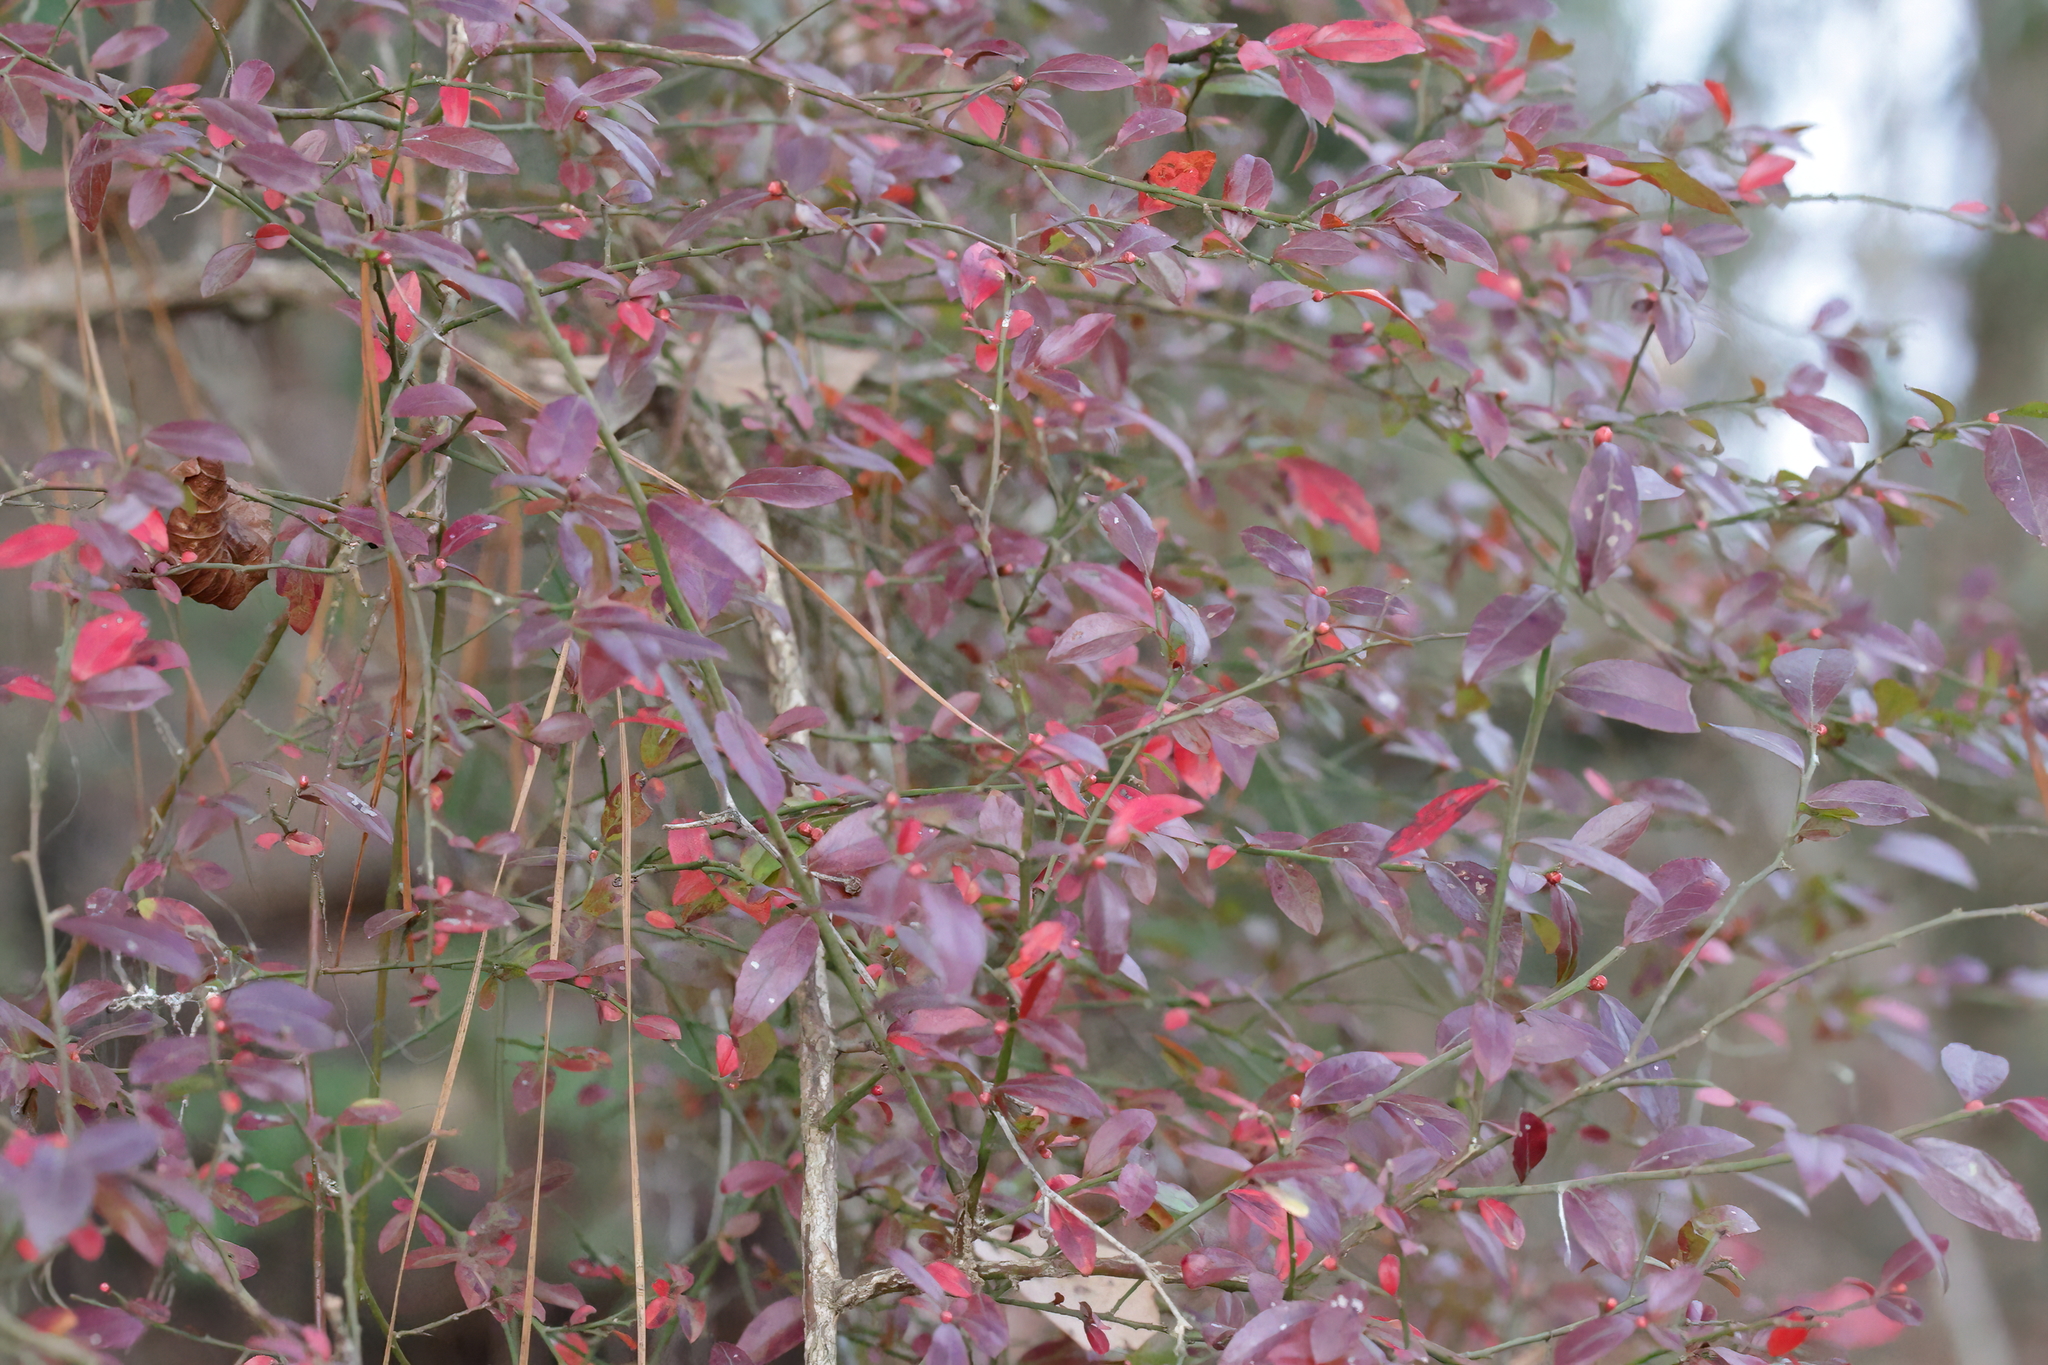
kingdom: Plantae
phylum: Tracheophyta
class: Magnoliopsida
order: Ericales
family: Ericaceae
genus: Vaccinium
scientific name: Vaccinium corymbosum
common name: Blueberry
